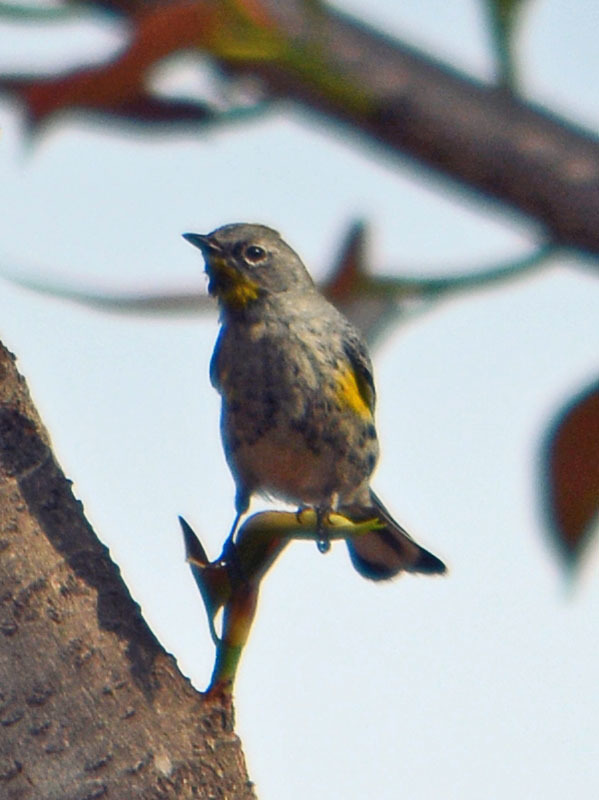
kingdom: Animalia
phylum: Chordata
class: Aves
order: Passeriformes
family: Parulidae
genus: Setophaga
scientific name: Setophaga auduboni
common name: Audubon's warbler
